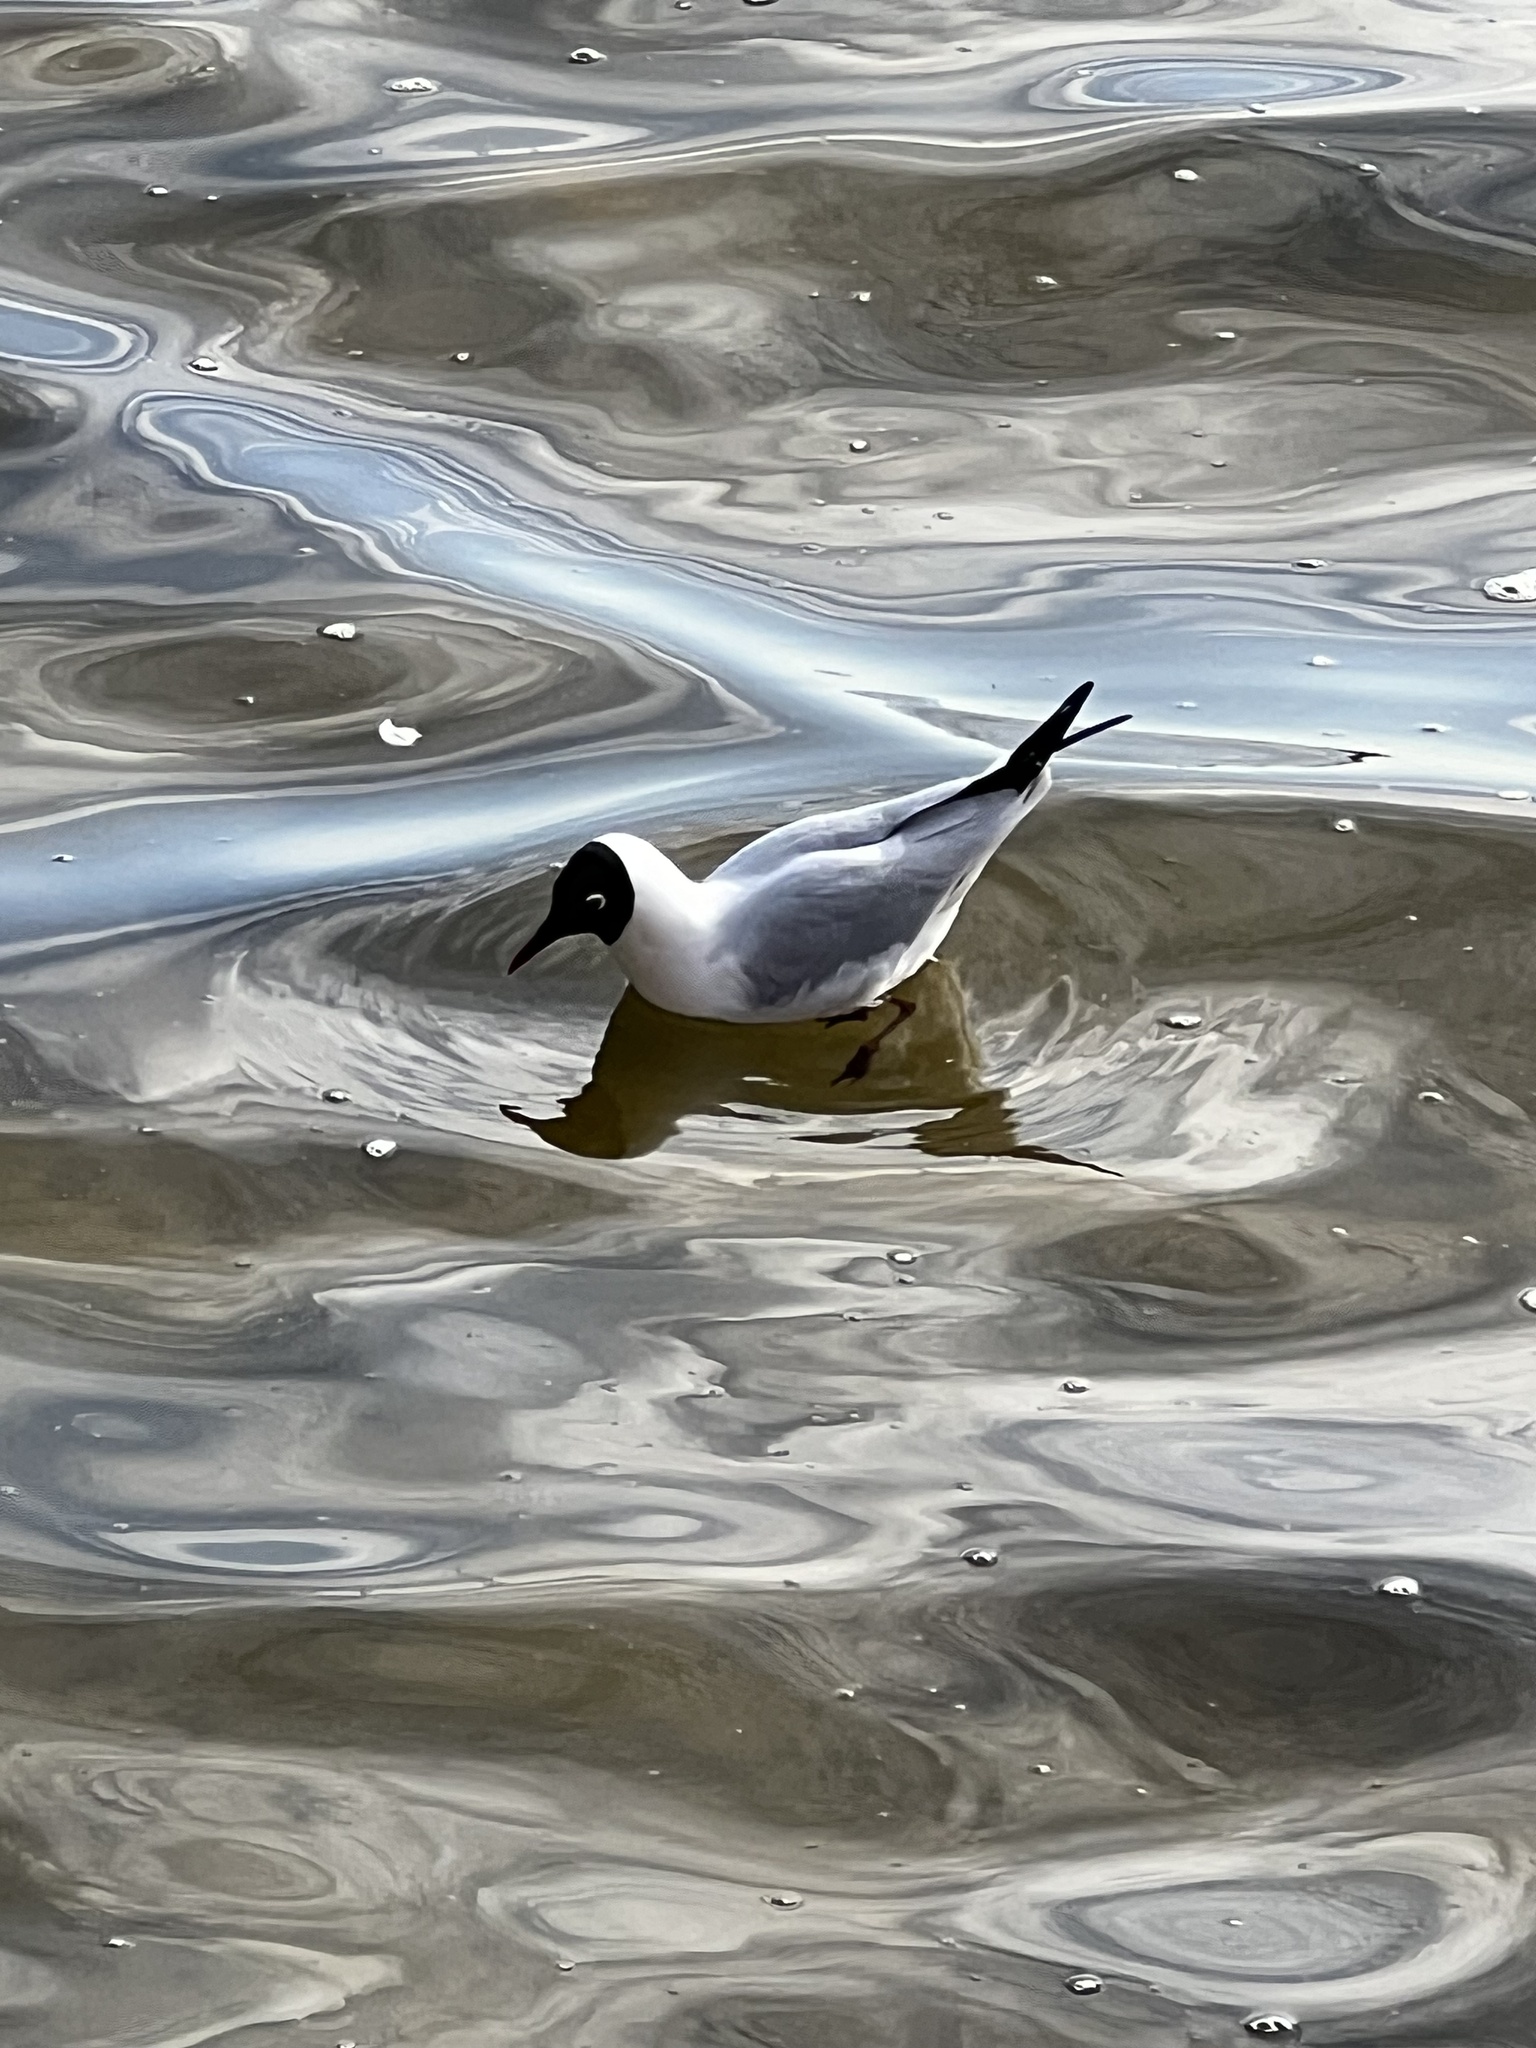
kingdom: Animalia
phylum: Chordata
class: Aves
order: Charadriiformes
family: Laridae
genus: Chroicocephalus
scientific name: Chroicocephalus ridibundus
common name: Black-headed gull
